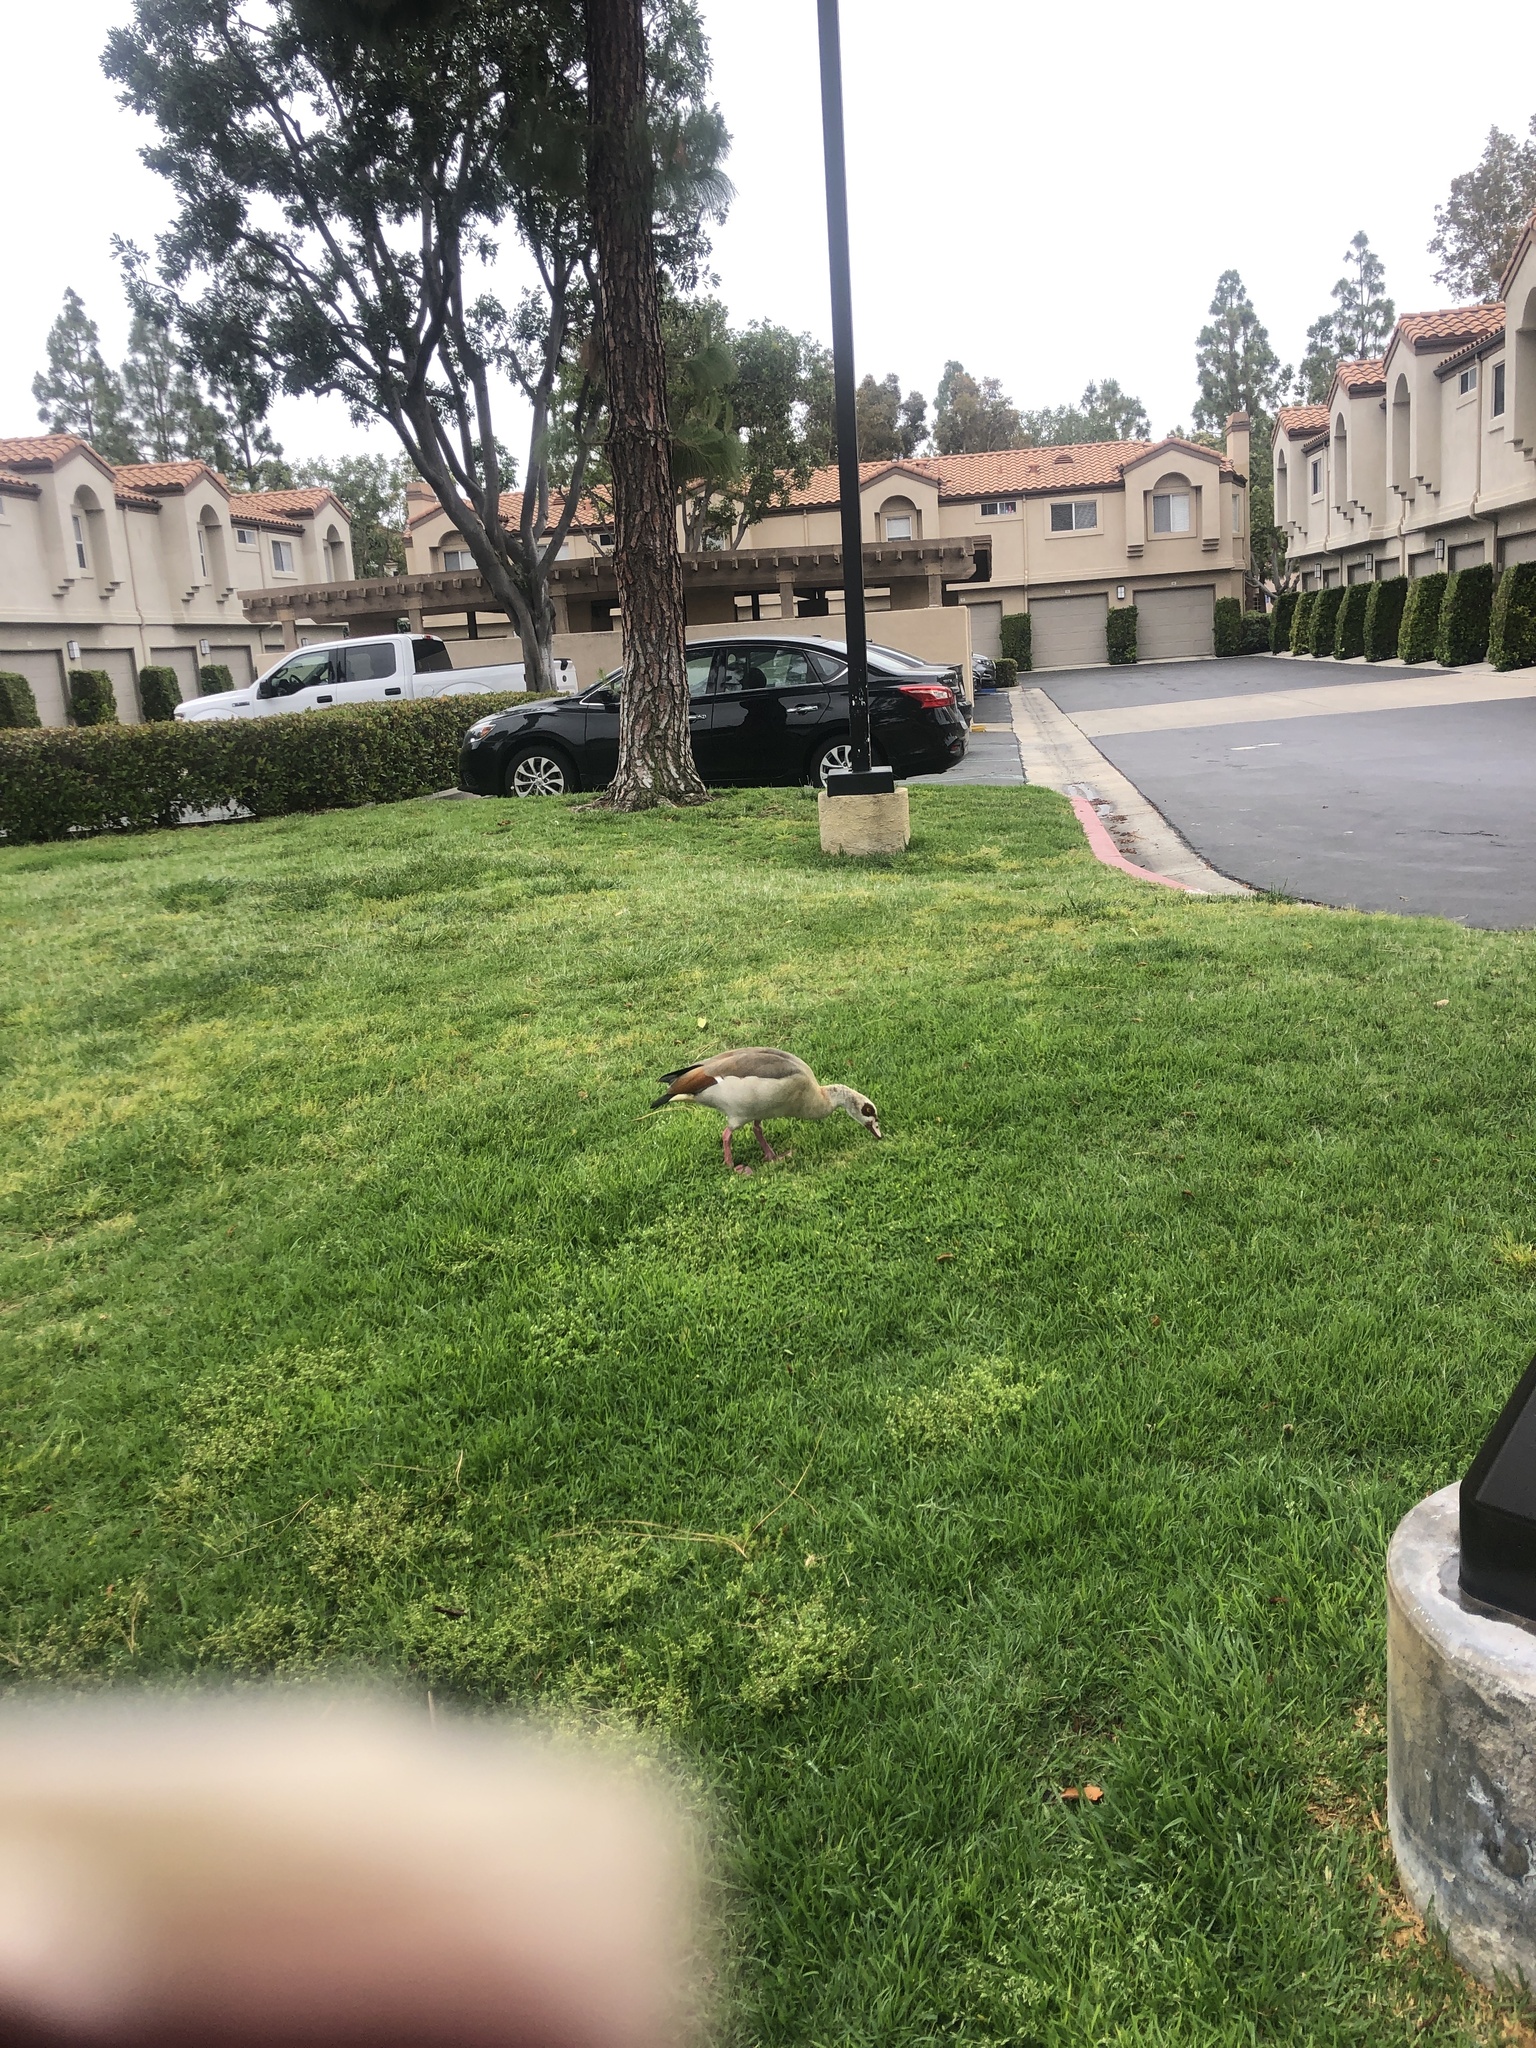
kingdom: Animalia
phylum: Chordata
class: Aves
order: Anseriformes
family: Anatidae
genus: Alopochen
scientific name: Alopochen aegyptiaca
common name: Egyptian goose
